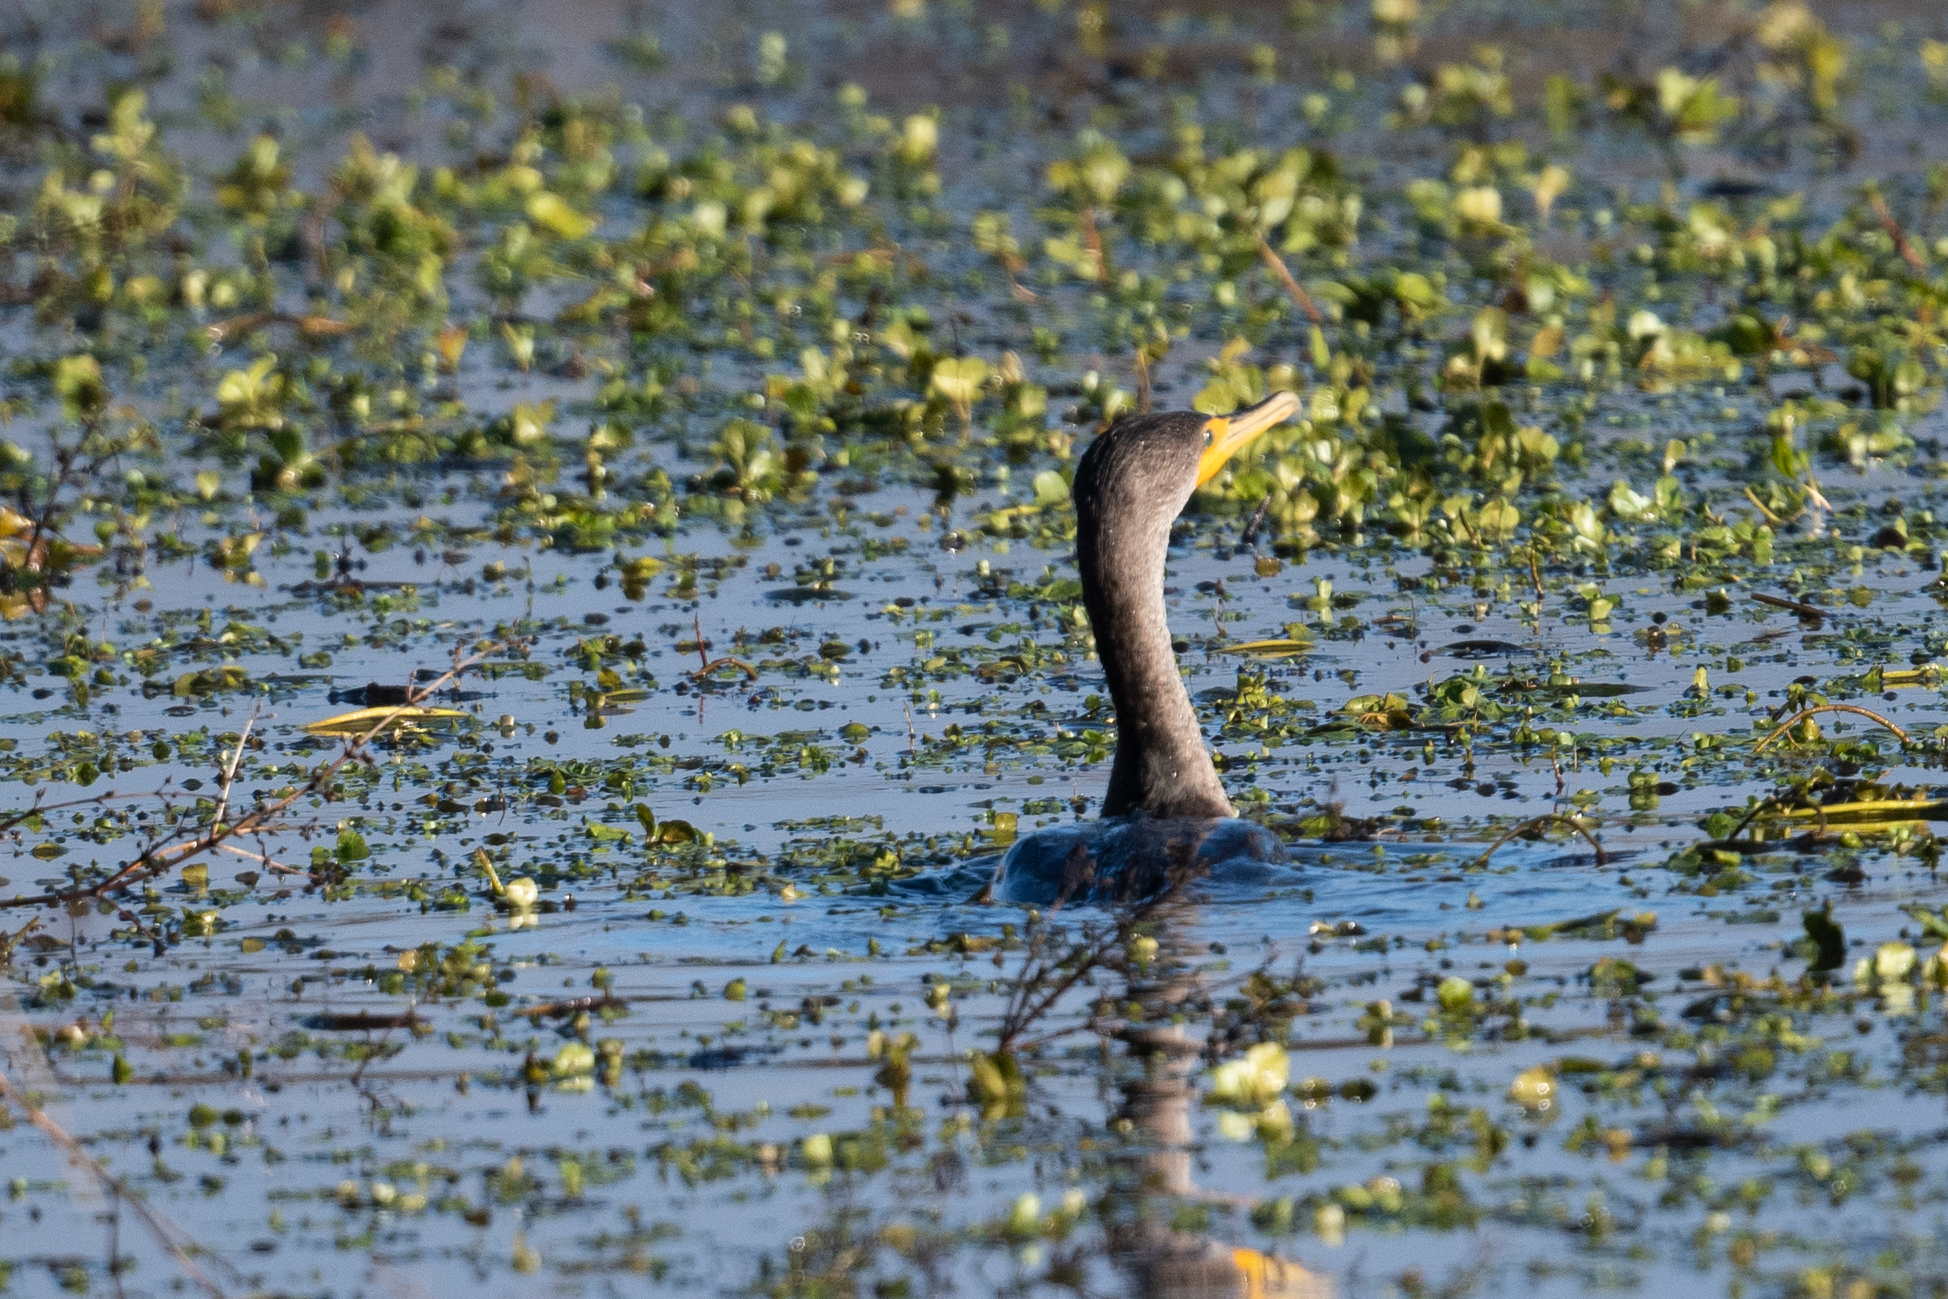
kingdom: Animalia
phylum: Chordata
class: Aves
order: Suliformes
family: Phalacrocoracidae
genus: Phalacrocorax
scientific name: Phalacrocorax auritus
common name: Double-crested cormorant
